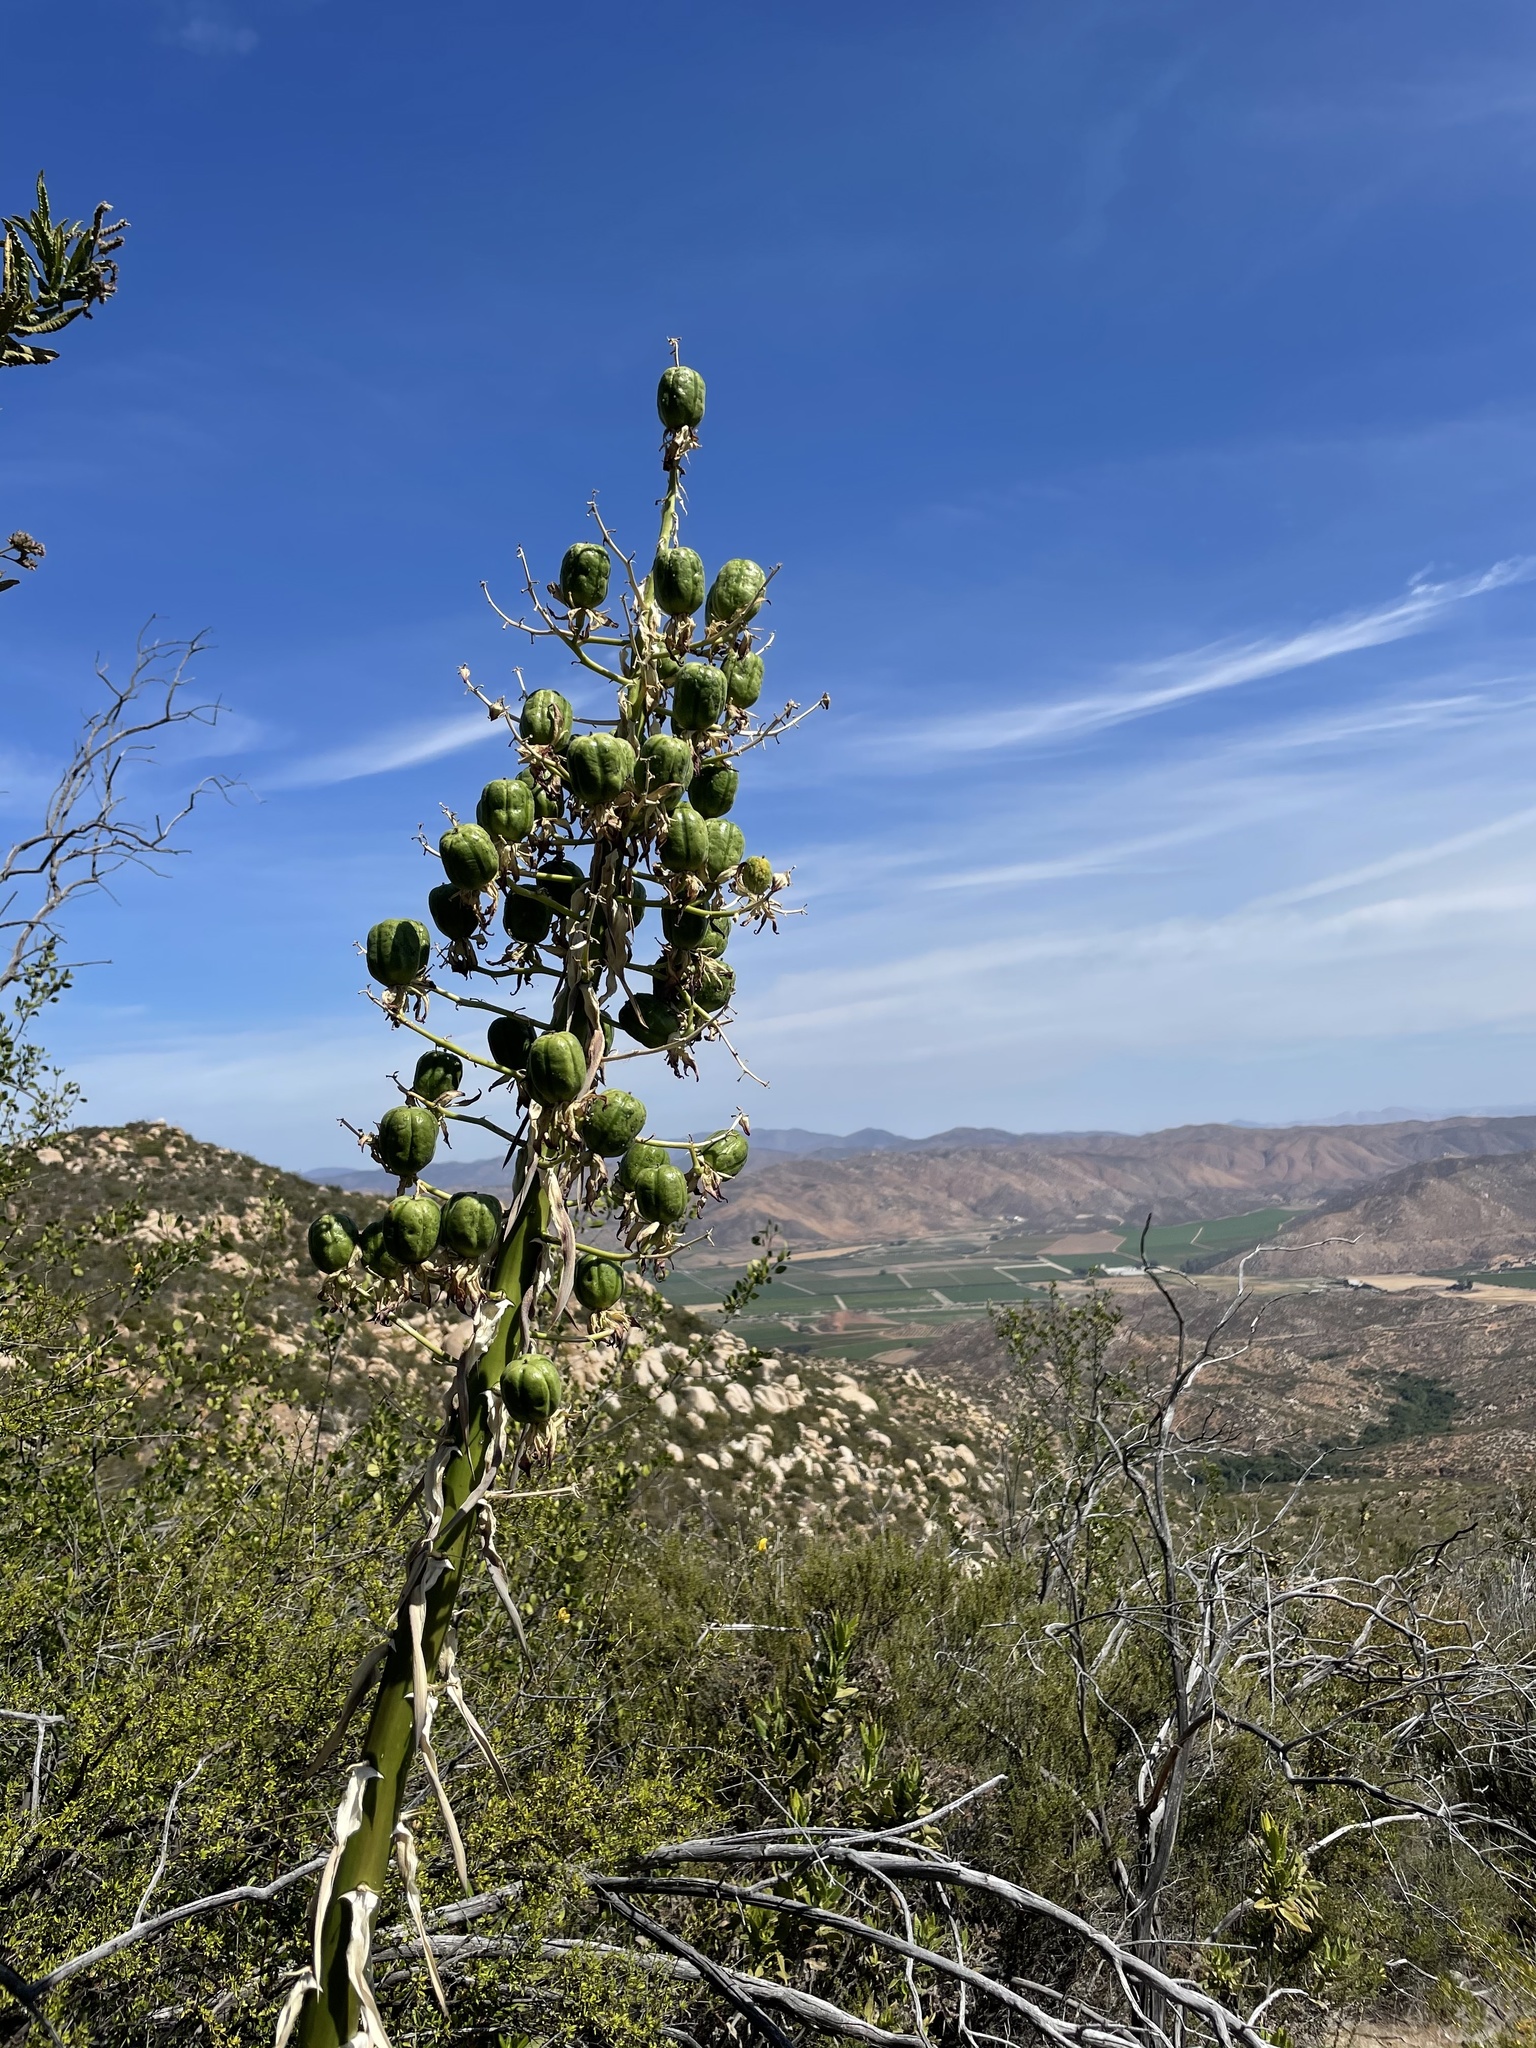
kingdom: Plantae
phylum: Tracheophyta
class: Liliopsida
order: Asparagales
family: Asparagaceae
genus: Hesperoyucca
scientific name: Hesperoyucca whipplei
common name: Our lord's-candle
